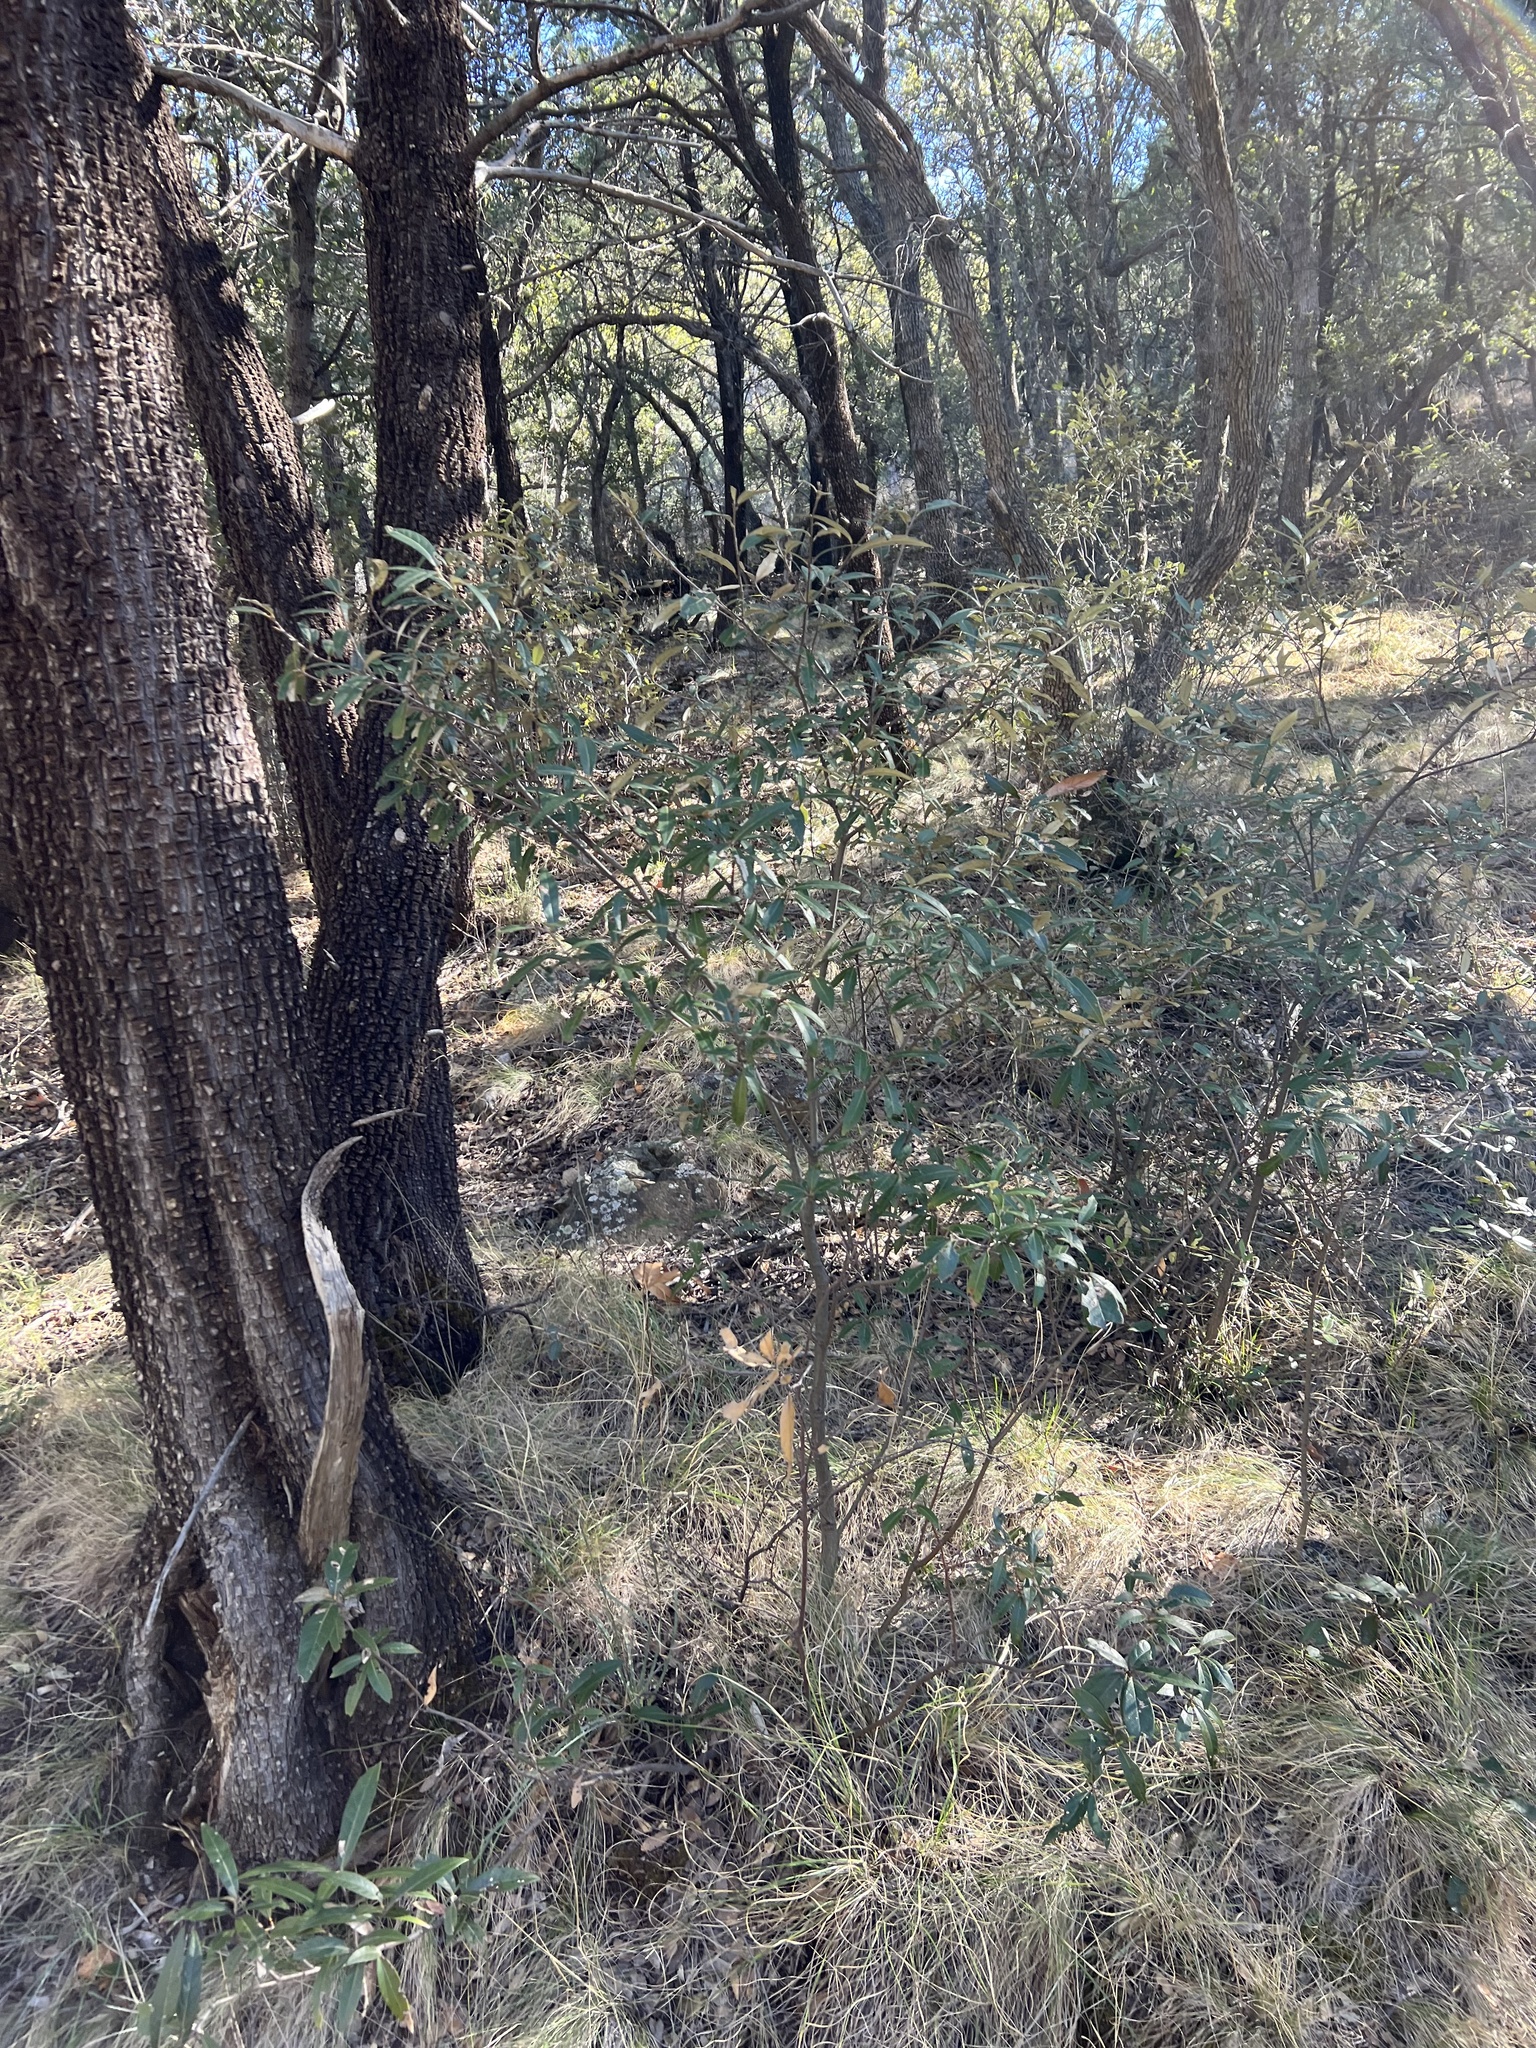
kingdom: Plantae
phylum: Tracheophyta
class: Magnoliopsida
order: Fagales
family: Fagaceae
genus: Quercus
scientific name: Quercus hypoleucoides
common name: Silverleaf oak
